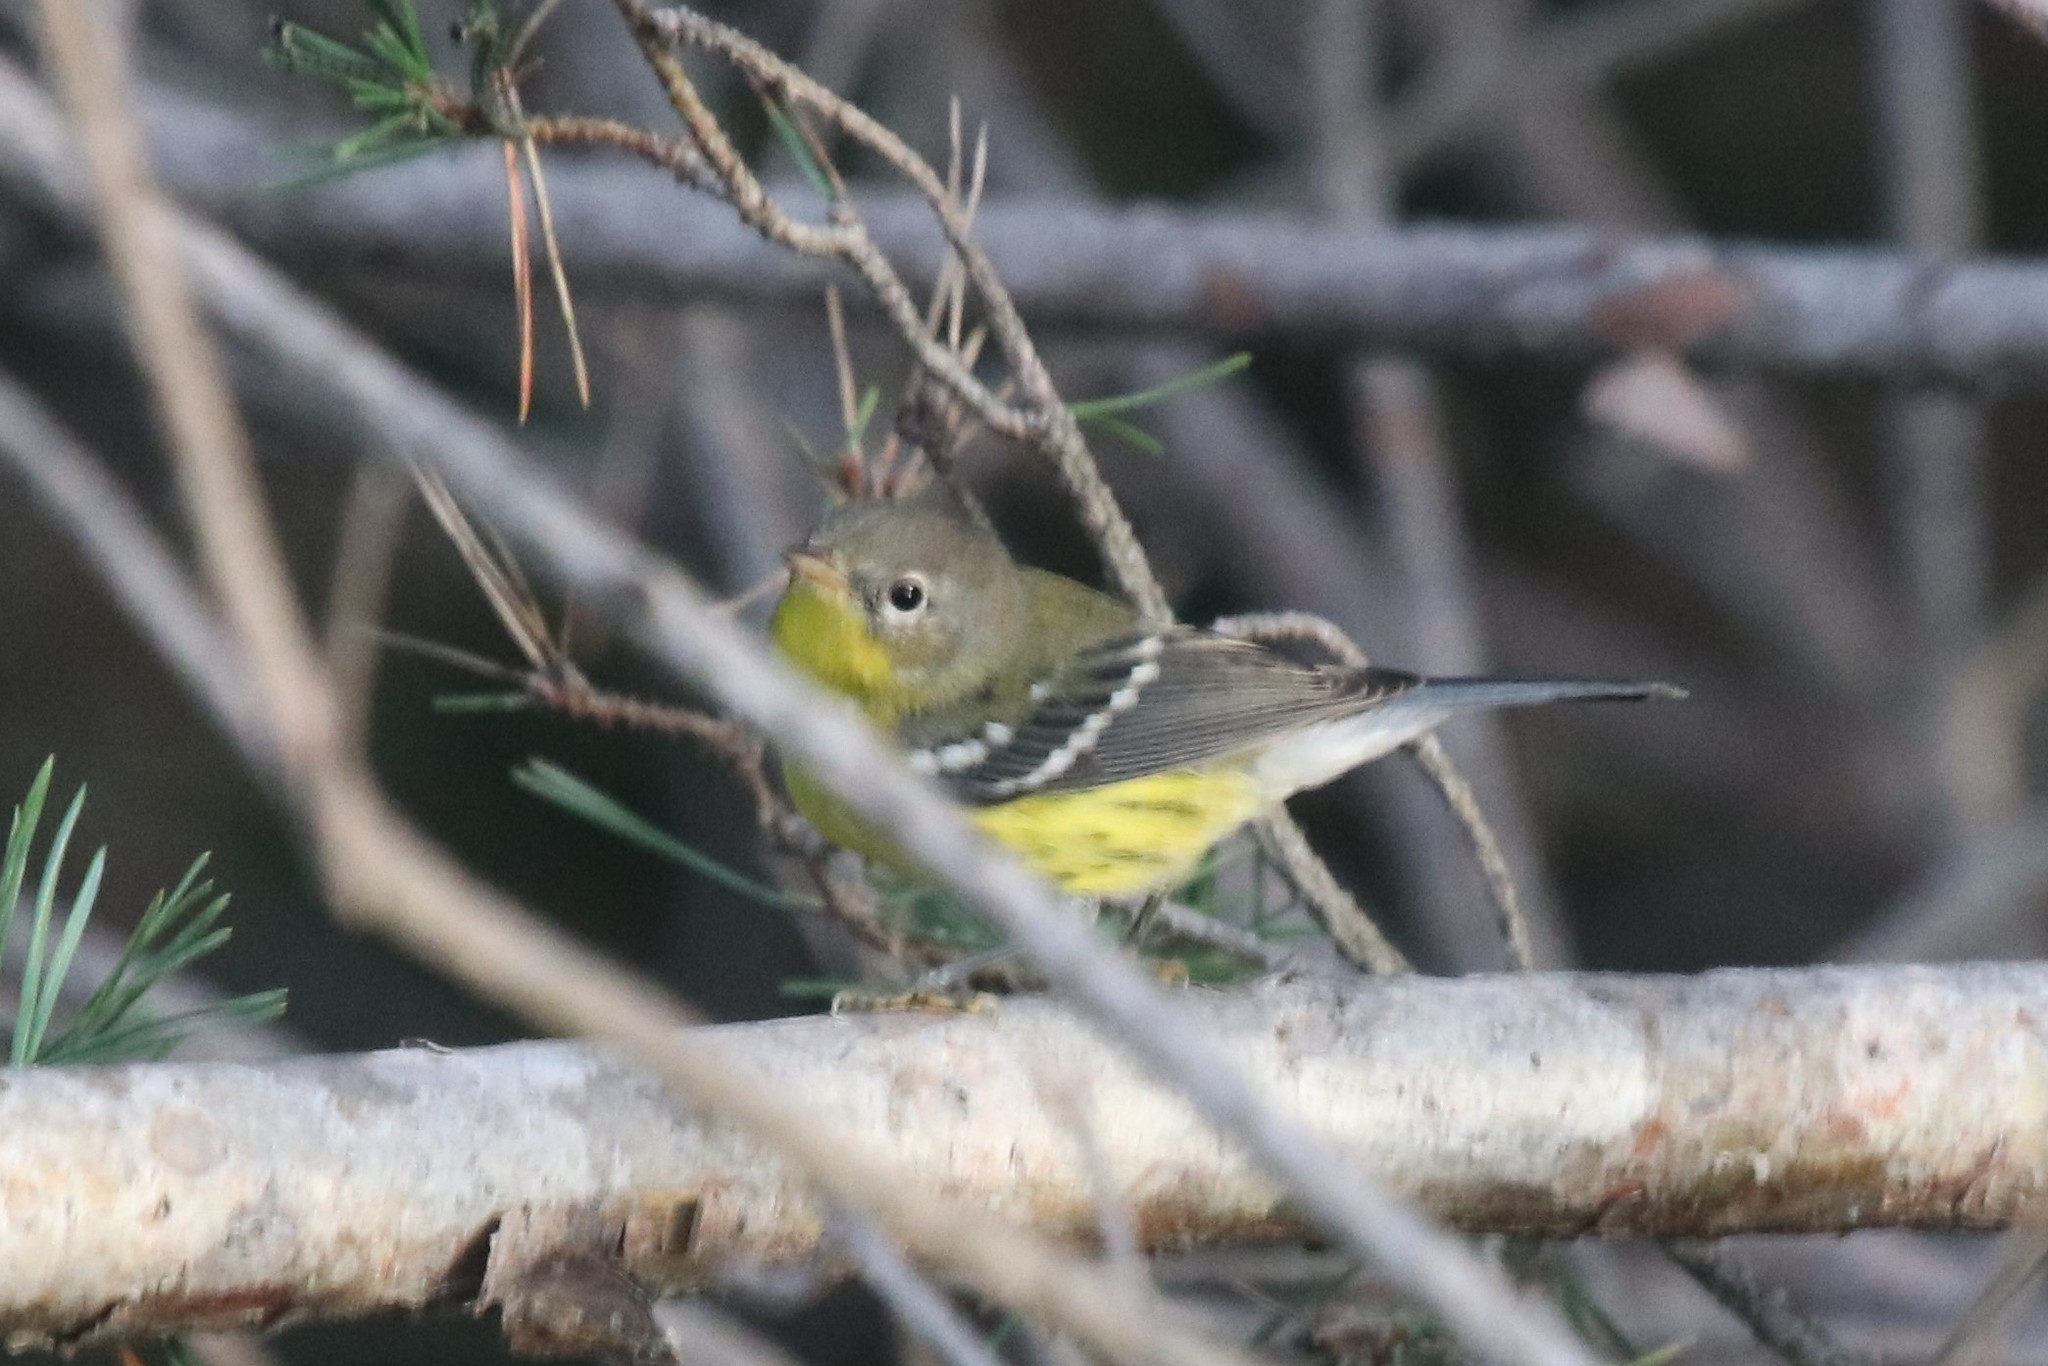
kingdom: Animalia
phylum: Chordata
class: Aves
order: Passeriformes
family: Parulidae
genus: Setophaga
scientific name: Setophaga magnolia
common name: Magnolia warbler
